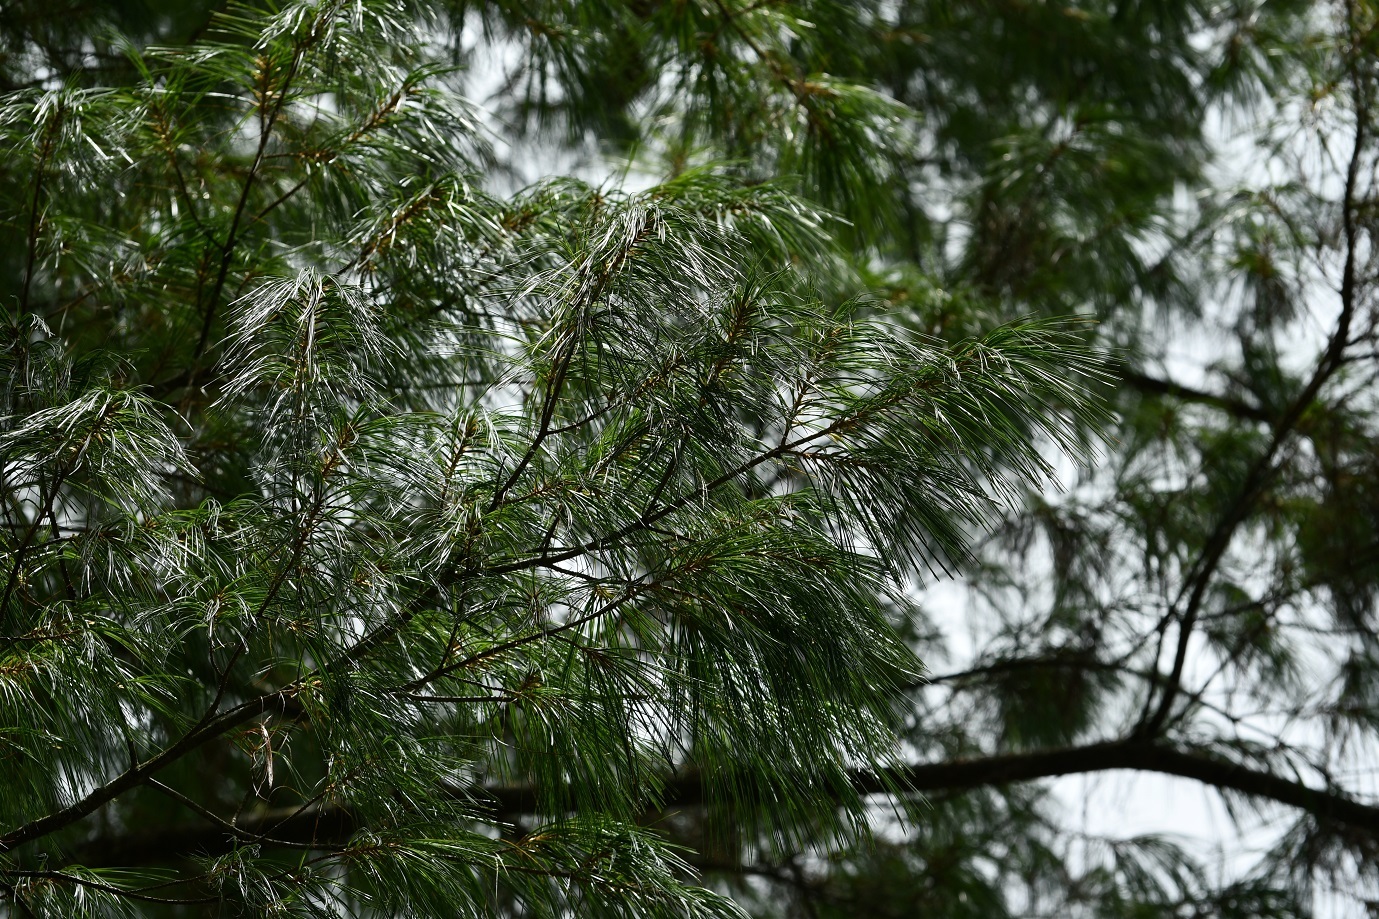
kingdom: Plantae
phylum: Tracheophyta
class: Pinopsida
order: Pinales
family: Pinaceae
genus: Pinus
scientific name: Pinus strobus
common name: Weymouth pine
